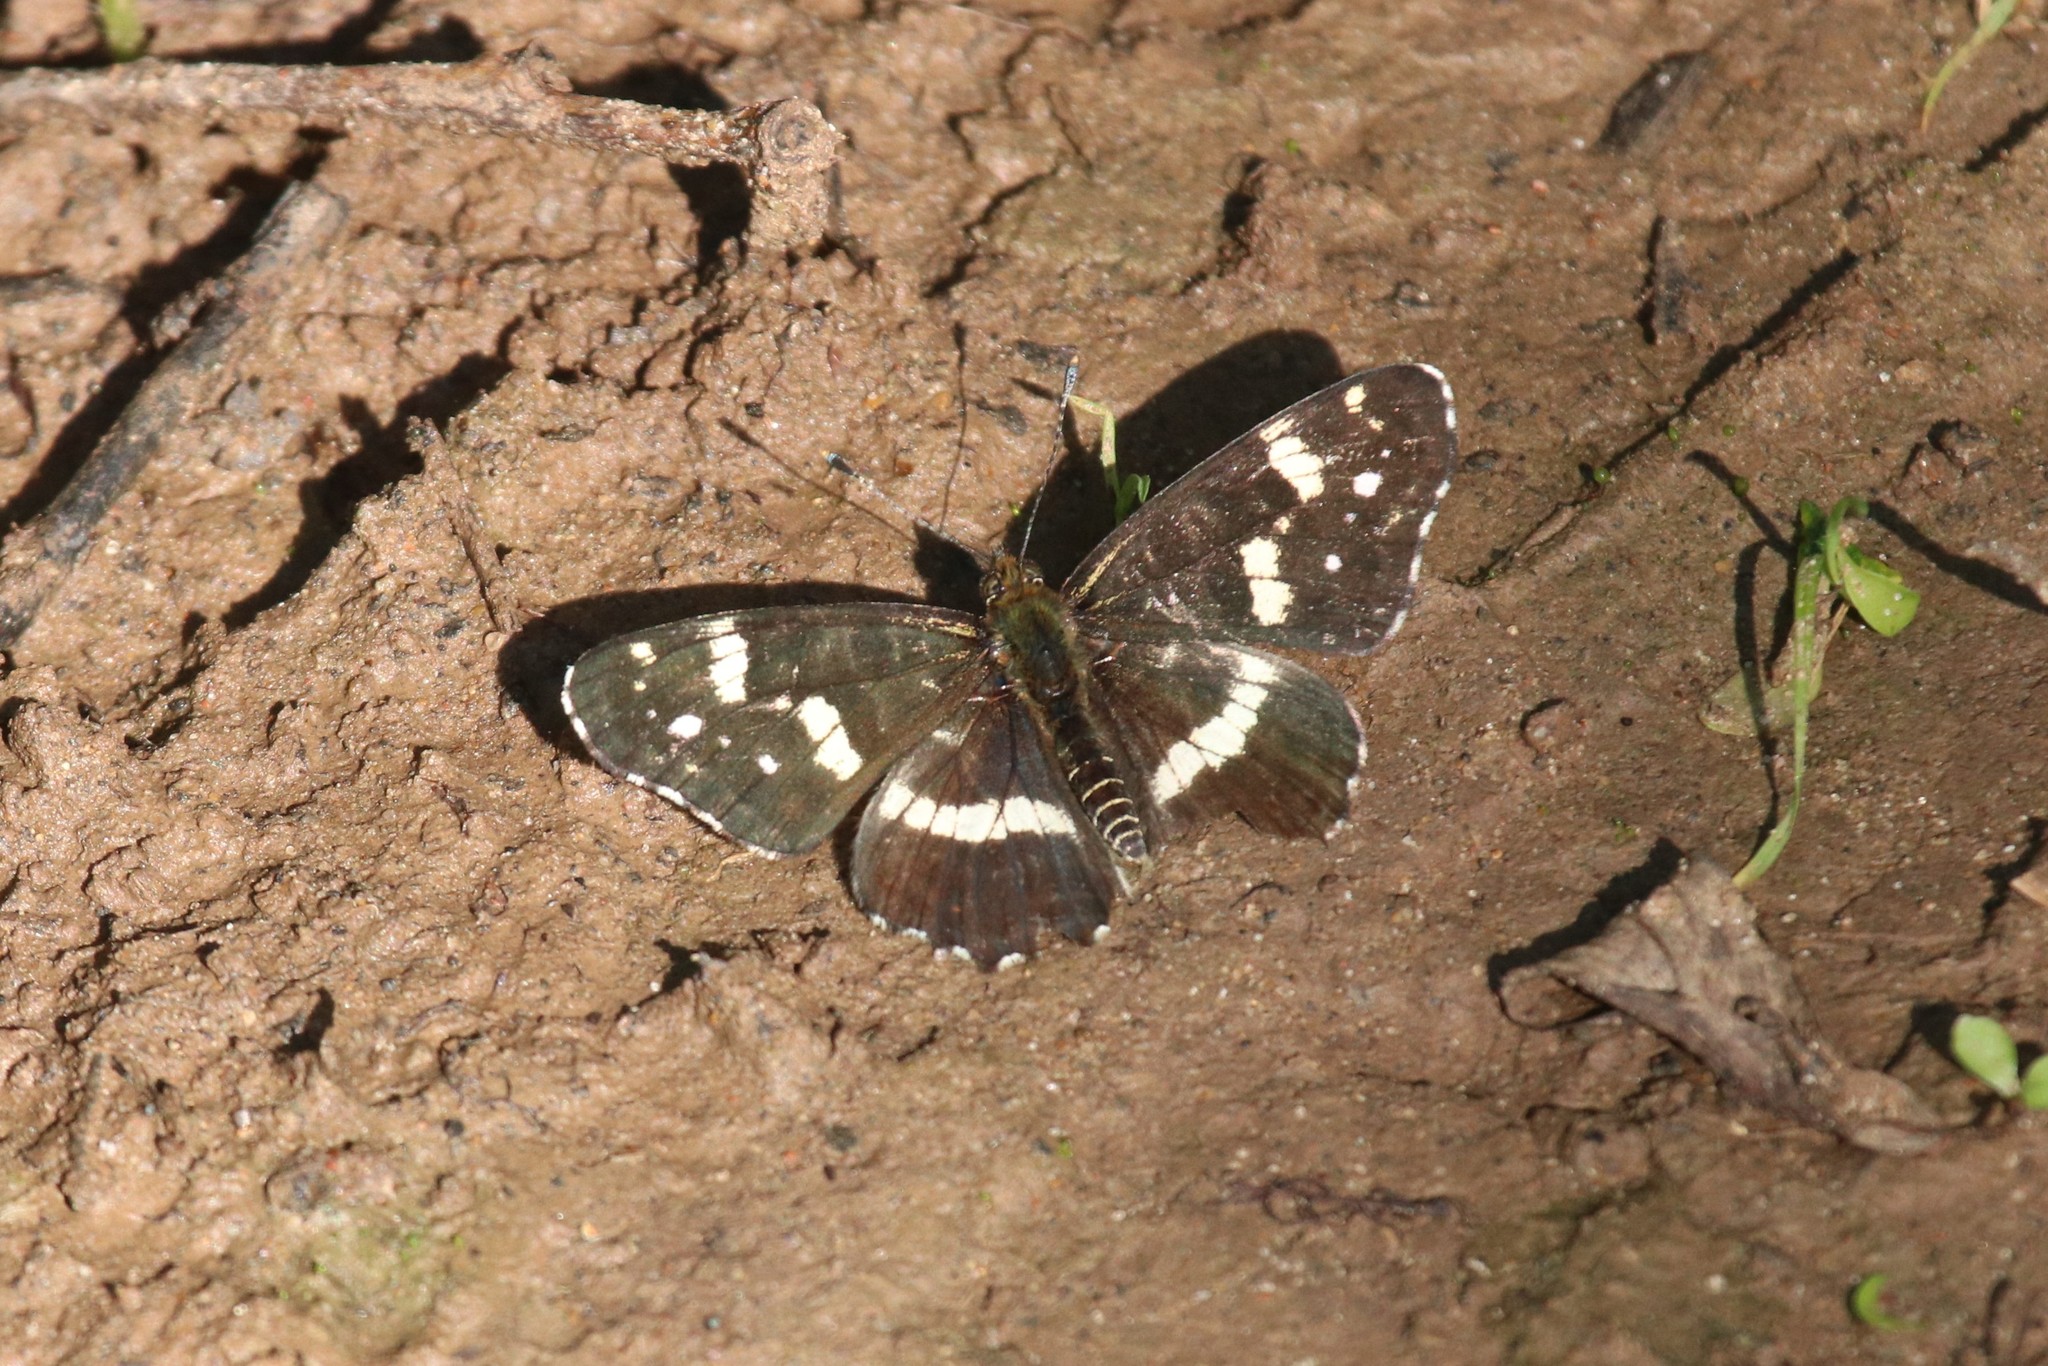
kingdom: Animalia
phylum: Arthropoda
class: Insecta
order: Lepidoptera
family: Nymphalidae
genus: Araschnia
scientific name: Araschnia levana
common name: Map butterfly
